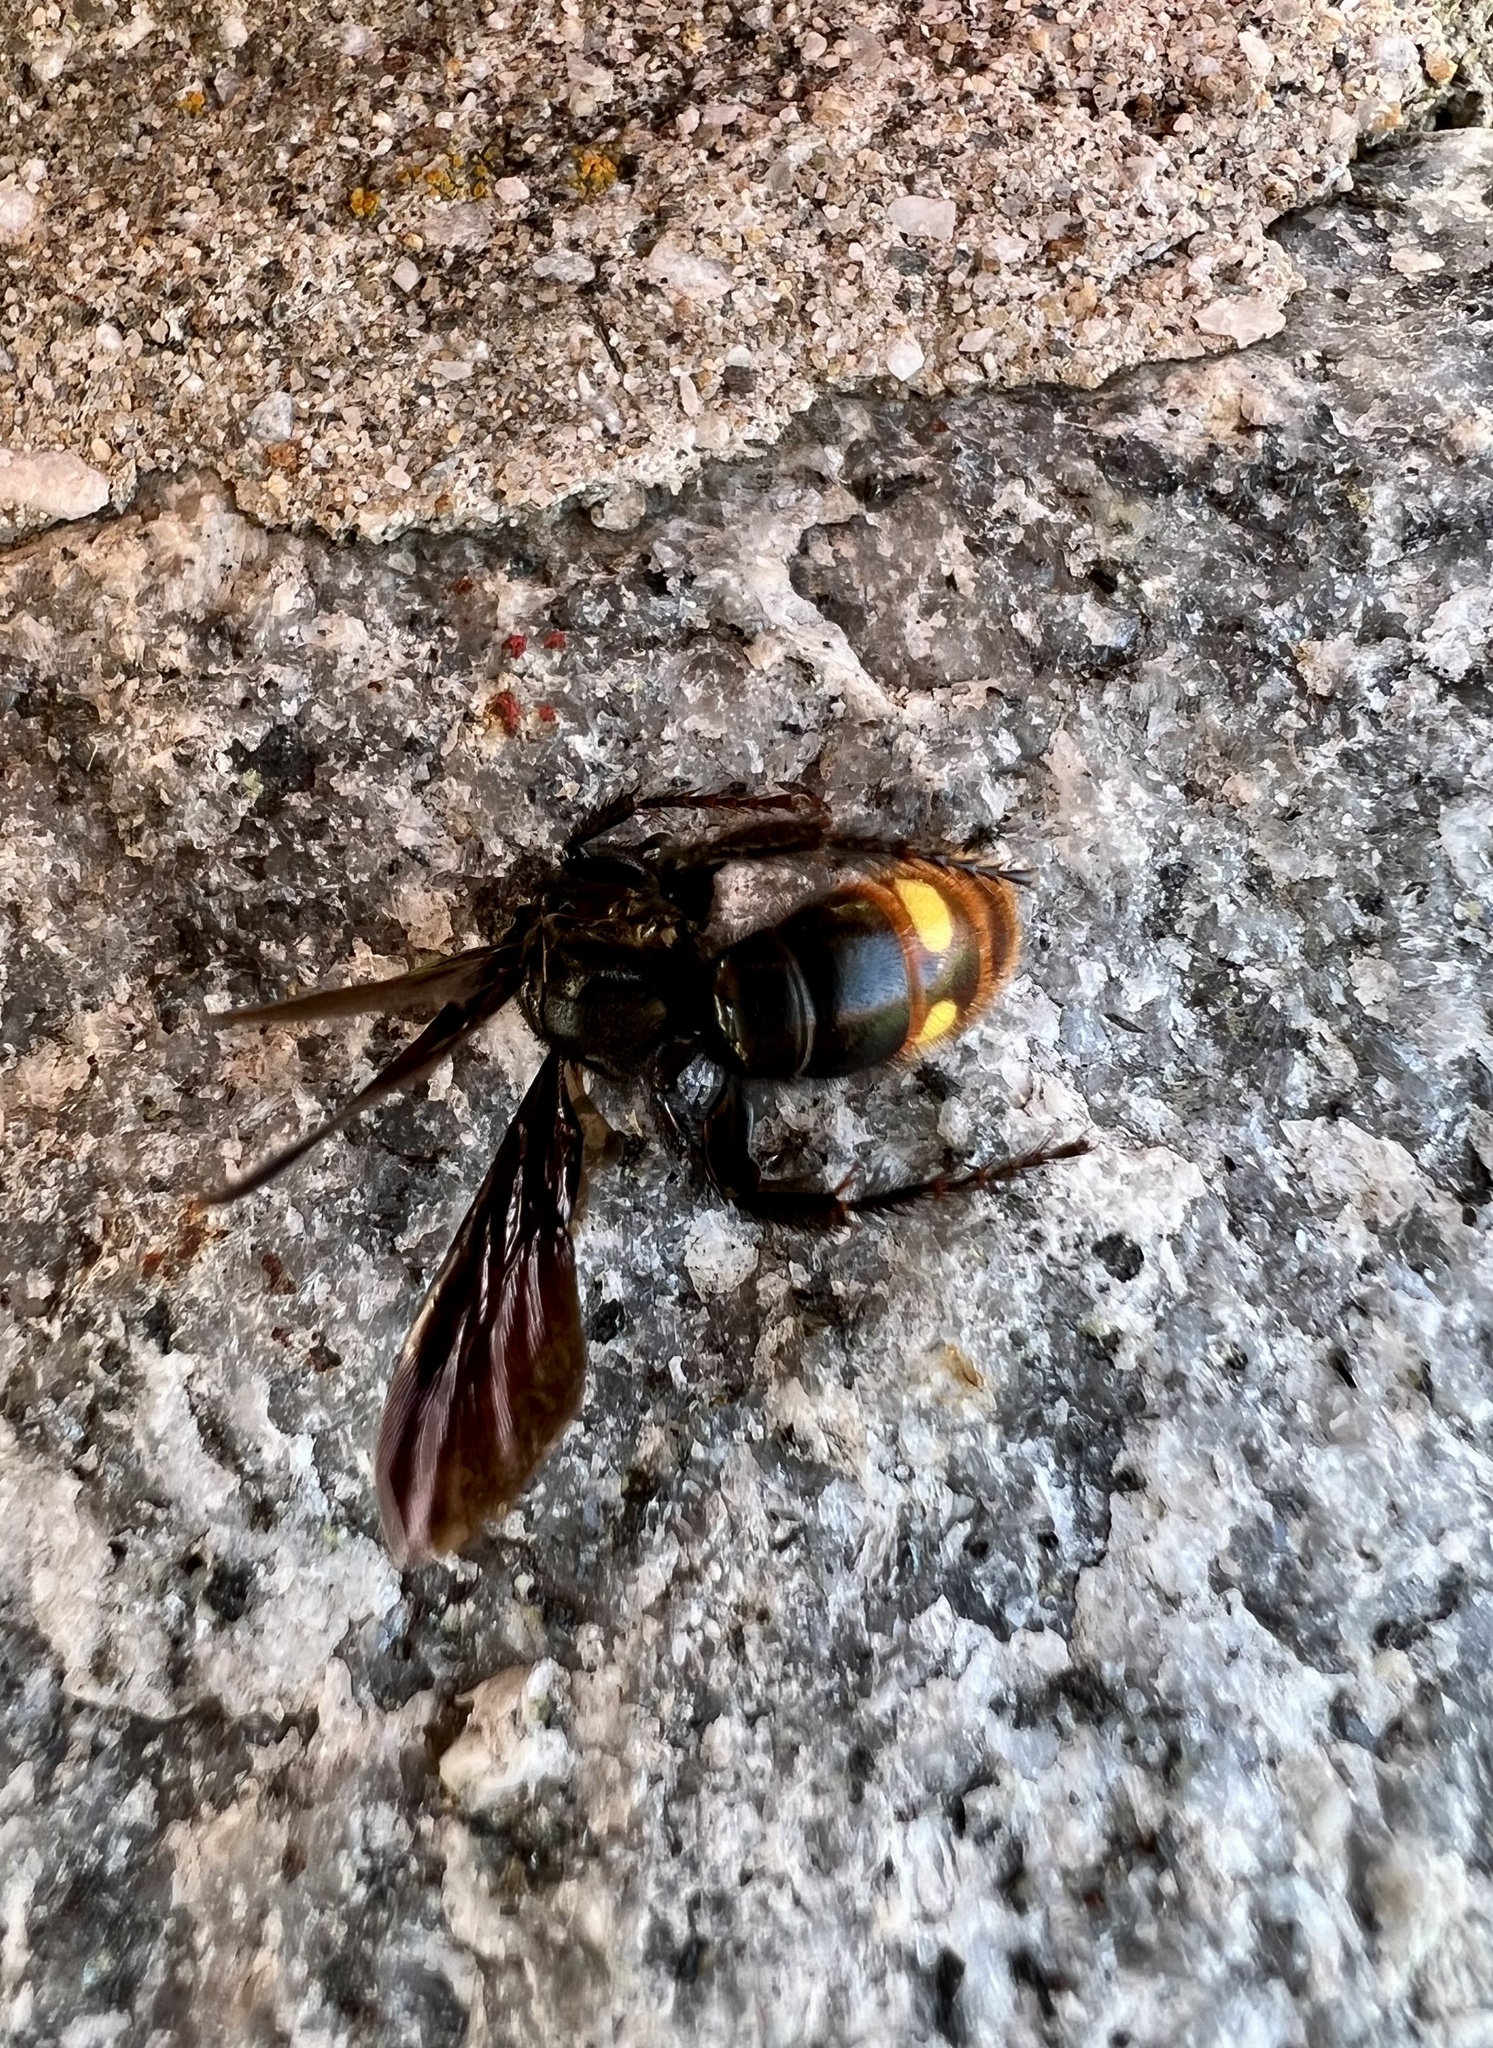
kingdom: Animalia
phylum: Arthropoda
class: Insecta
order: Hymenoptera
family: Scoliidae
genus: Scolia
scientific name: Scolia dubia
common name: Blue-winged scoliid wasp
